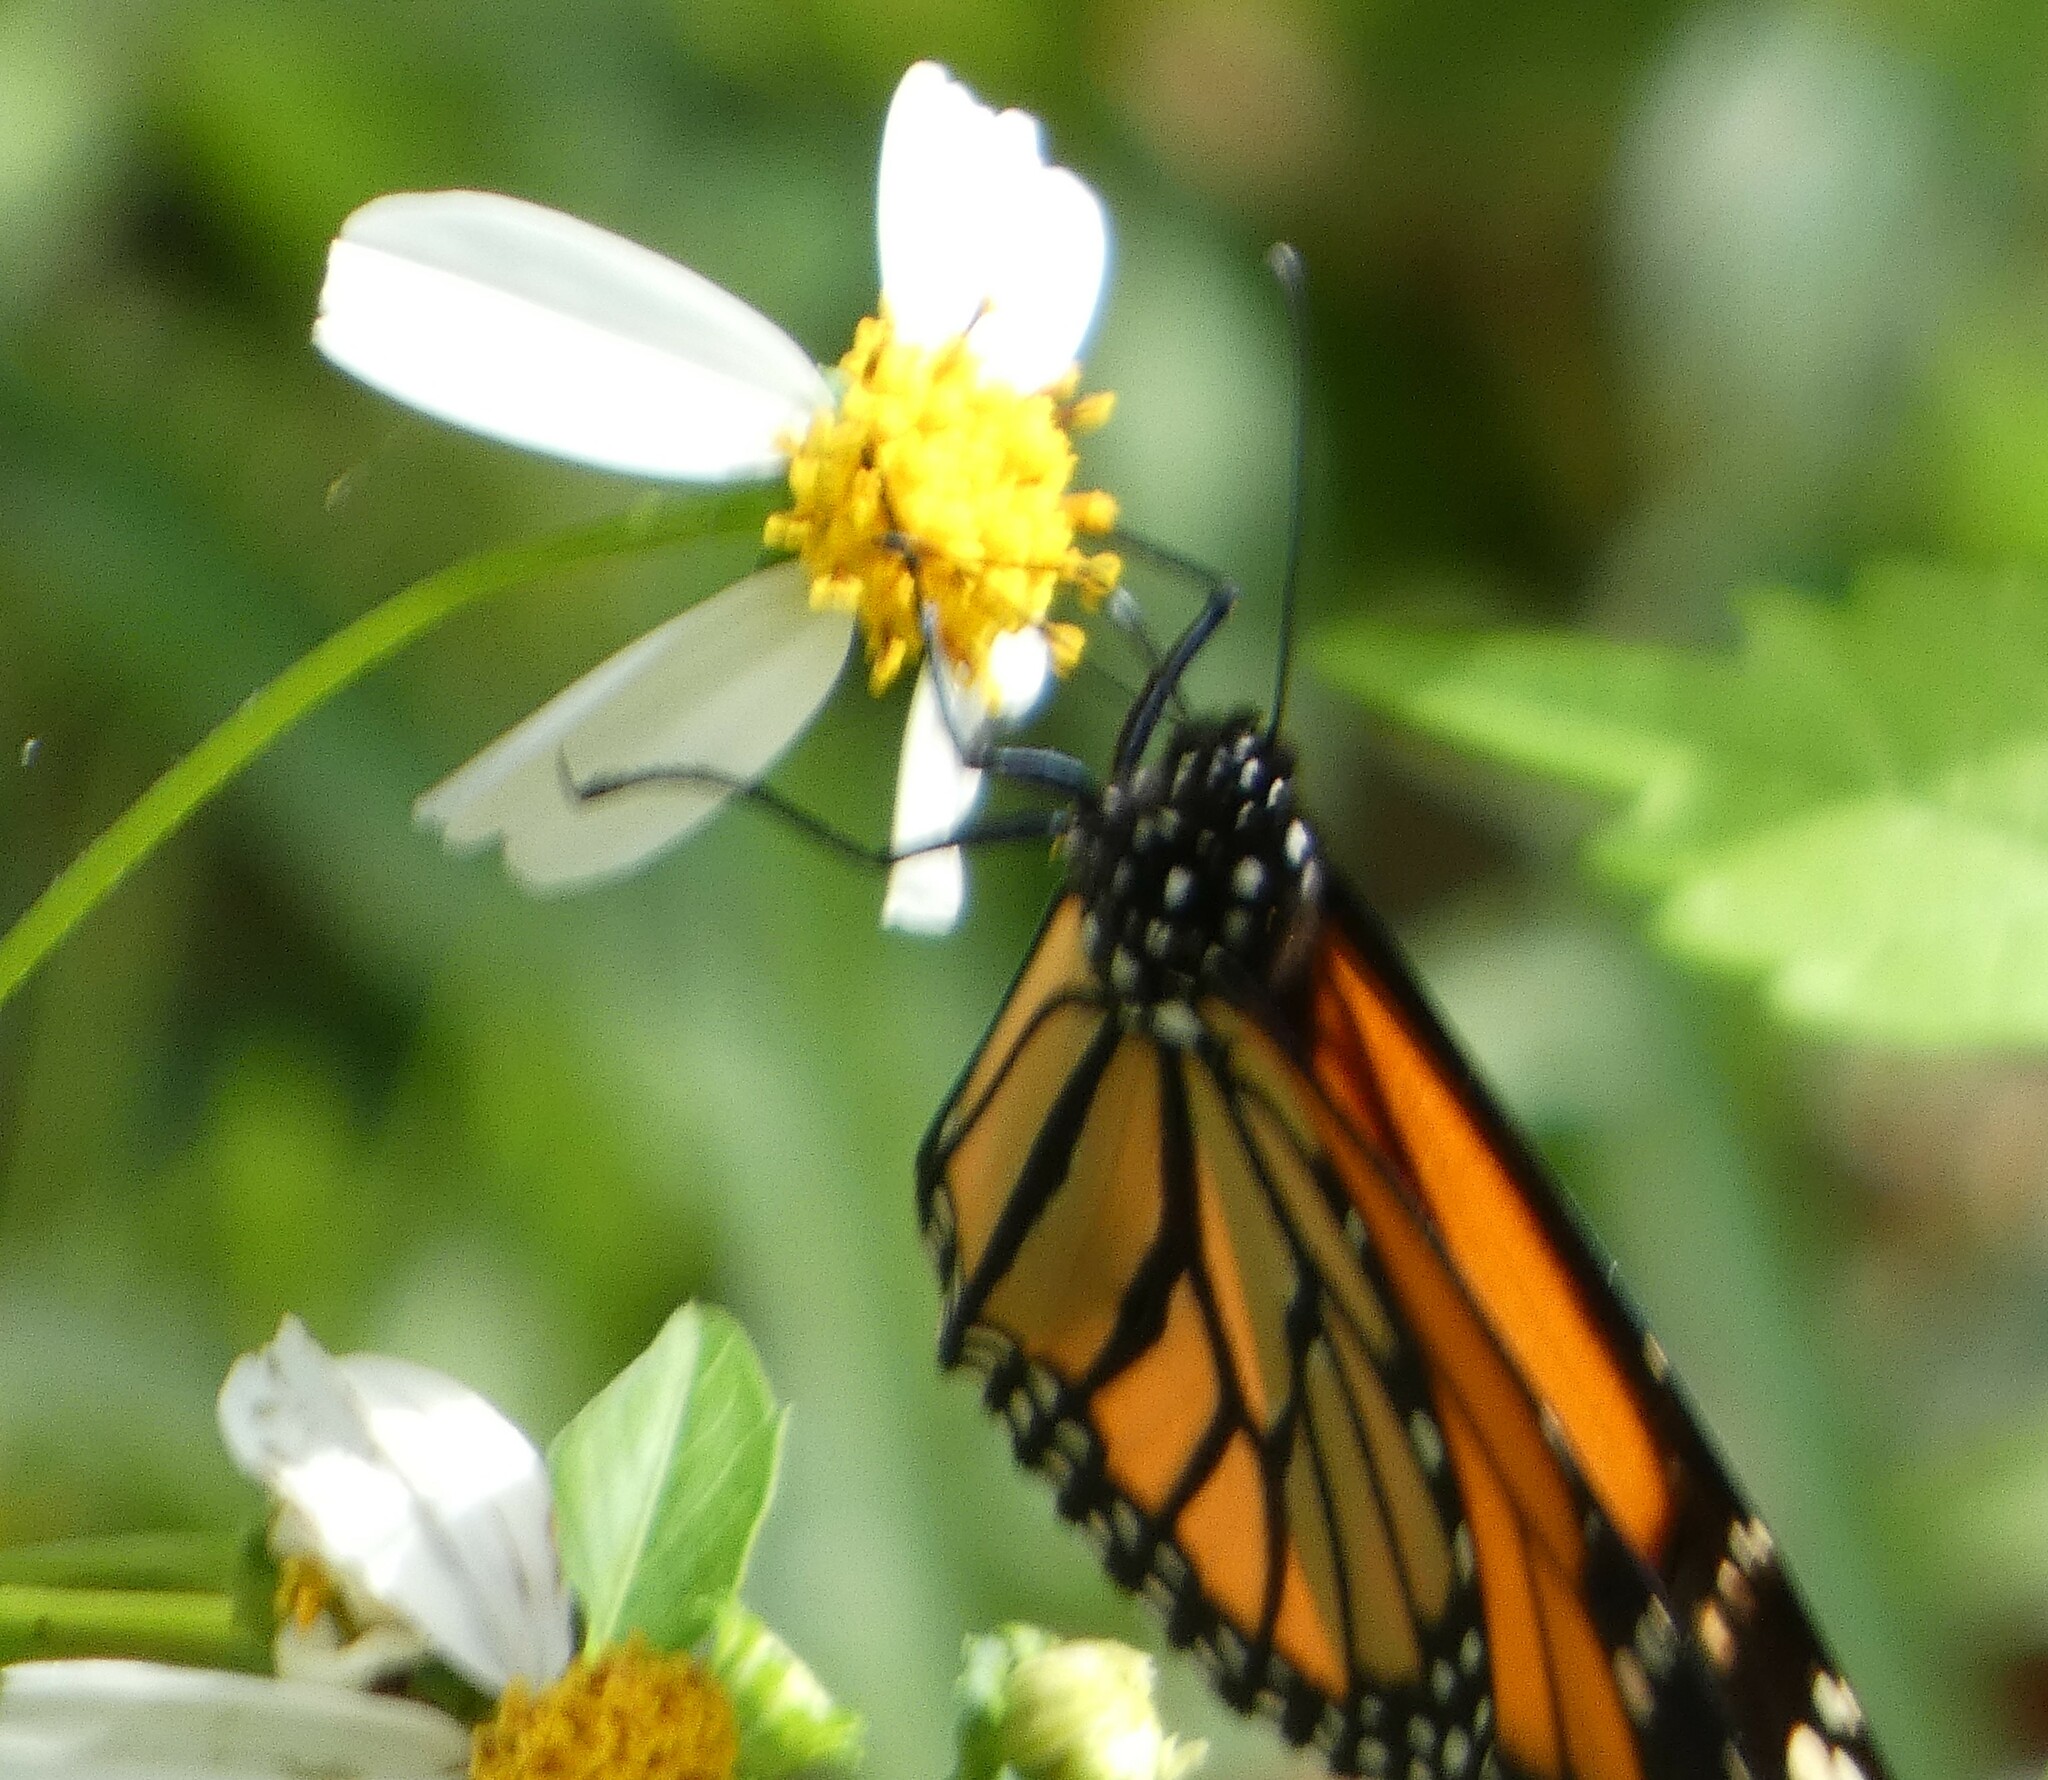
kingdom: Animalia
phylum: Arthropoda
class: Insecta
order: Lepidoptera
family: Nymphalidae
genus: Danaus
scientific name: Danaus plexippus
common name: Monarch
